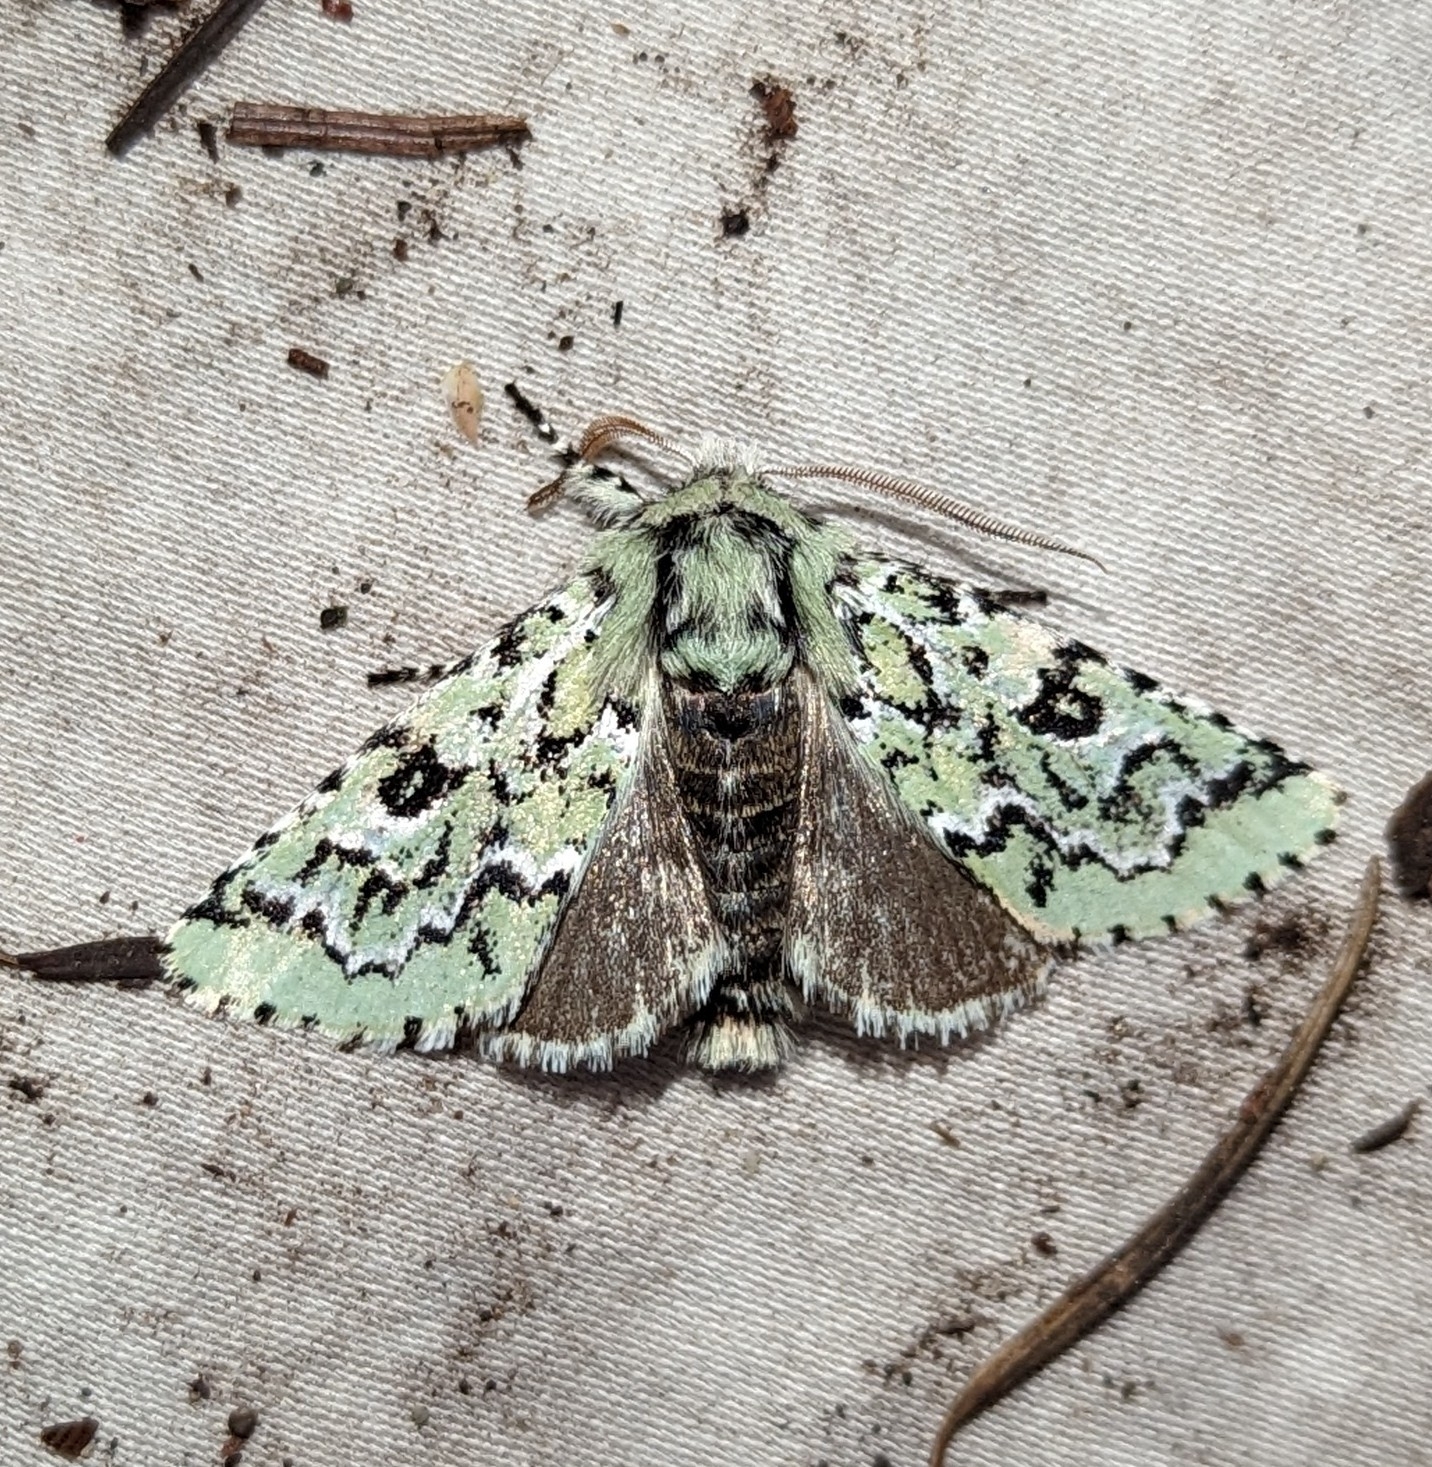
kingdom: Animalia
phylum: Arthropoda
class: Insecta
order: Lepidoptera
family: Noctuidae
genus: Feralia
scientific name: Feralia deceptiva
